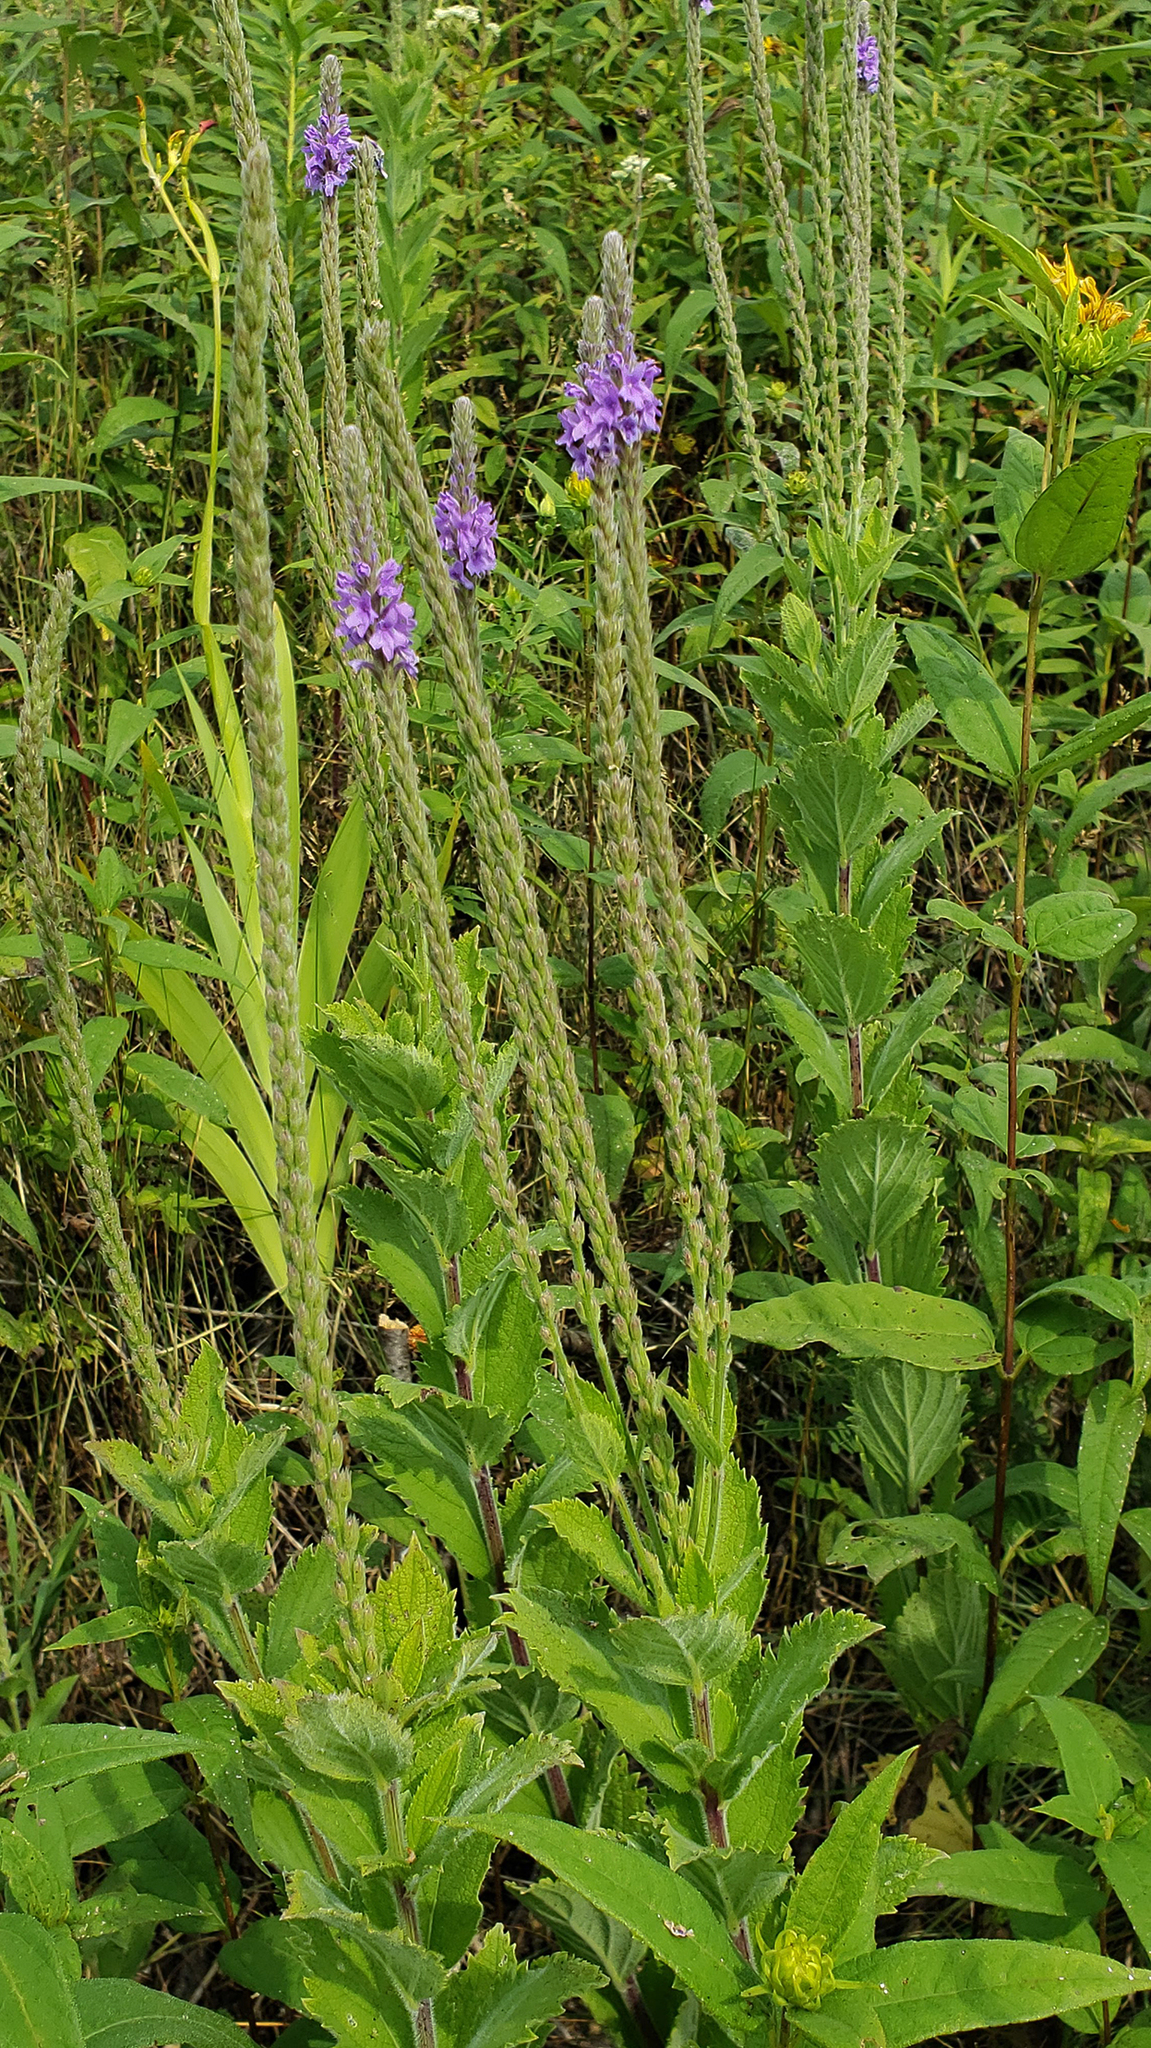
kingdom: Plantae
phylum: Tracheophyta
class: Magnoliopsida
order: Lamiales
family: Verbenaceae
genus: Verbena
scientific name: Verbena stricta
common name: Hoary vervain
